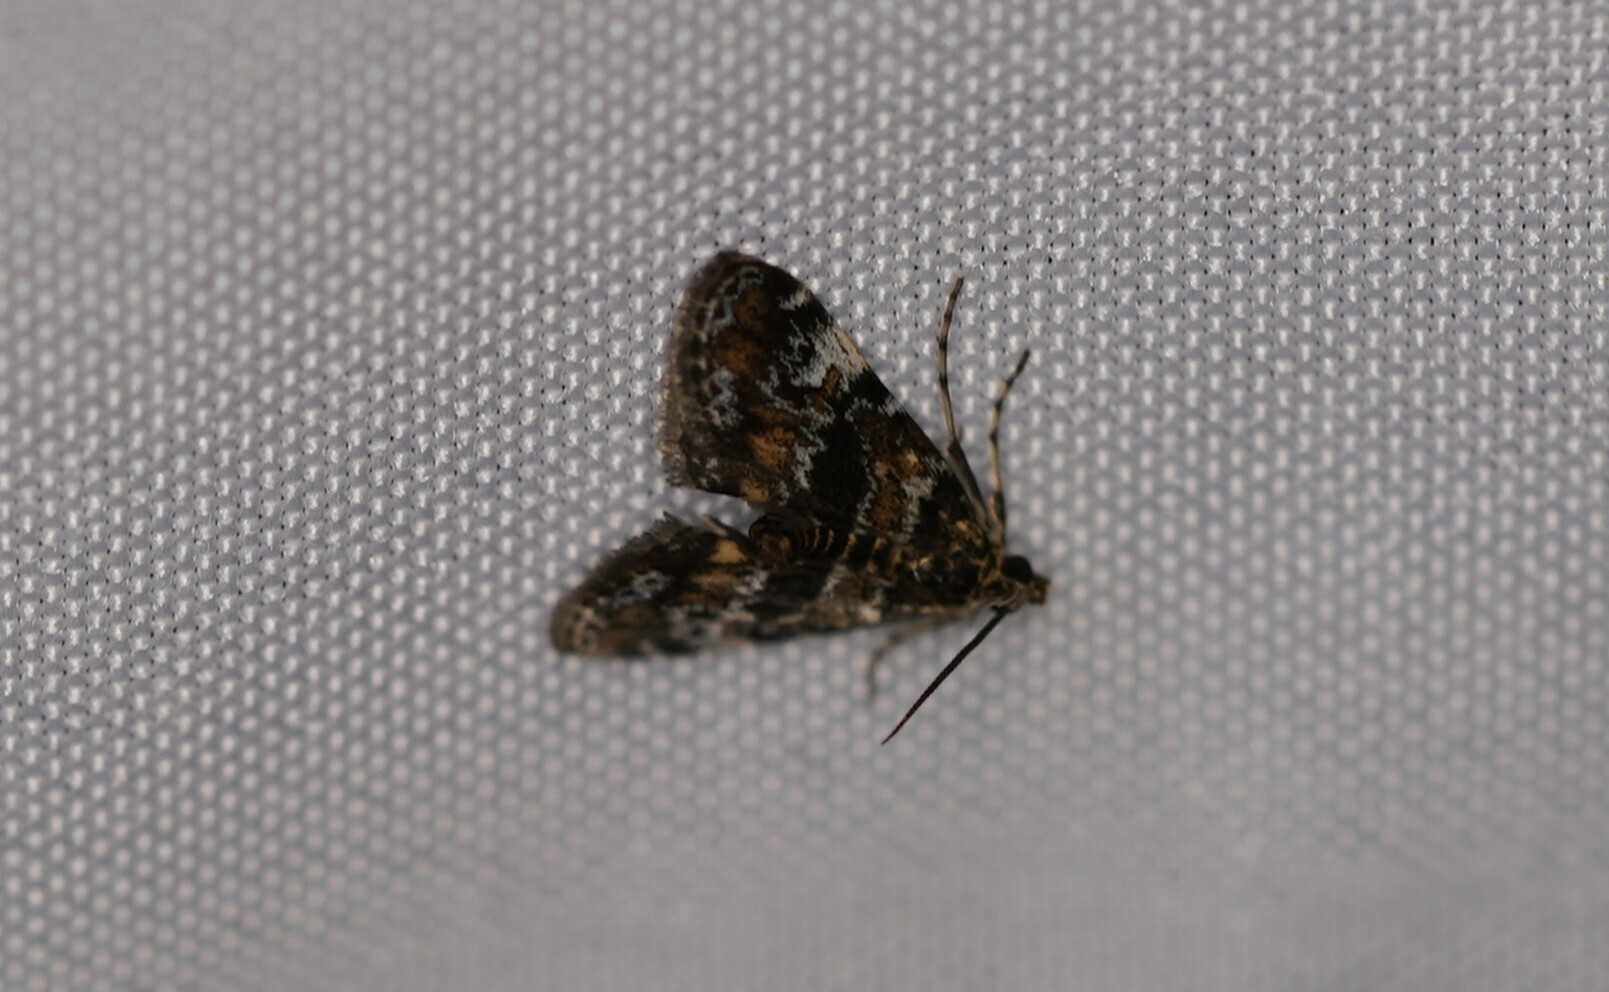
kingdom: Animalia
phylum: Arthropoda
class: Insecta
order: Lepidoptera
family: Crambidae
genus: Elophila
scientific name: Elophila obliteralis
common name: Waterlily leafcutter moth
